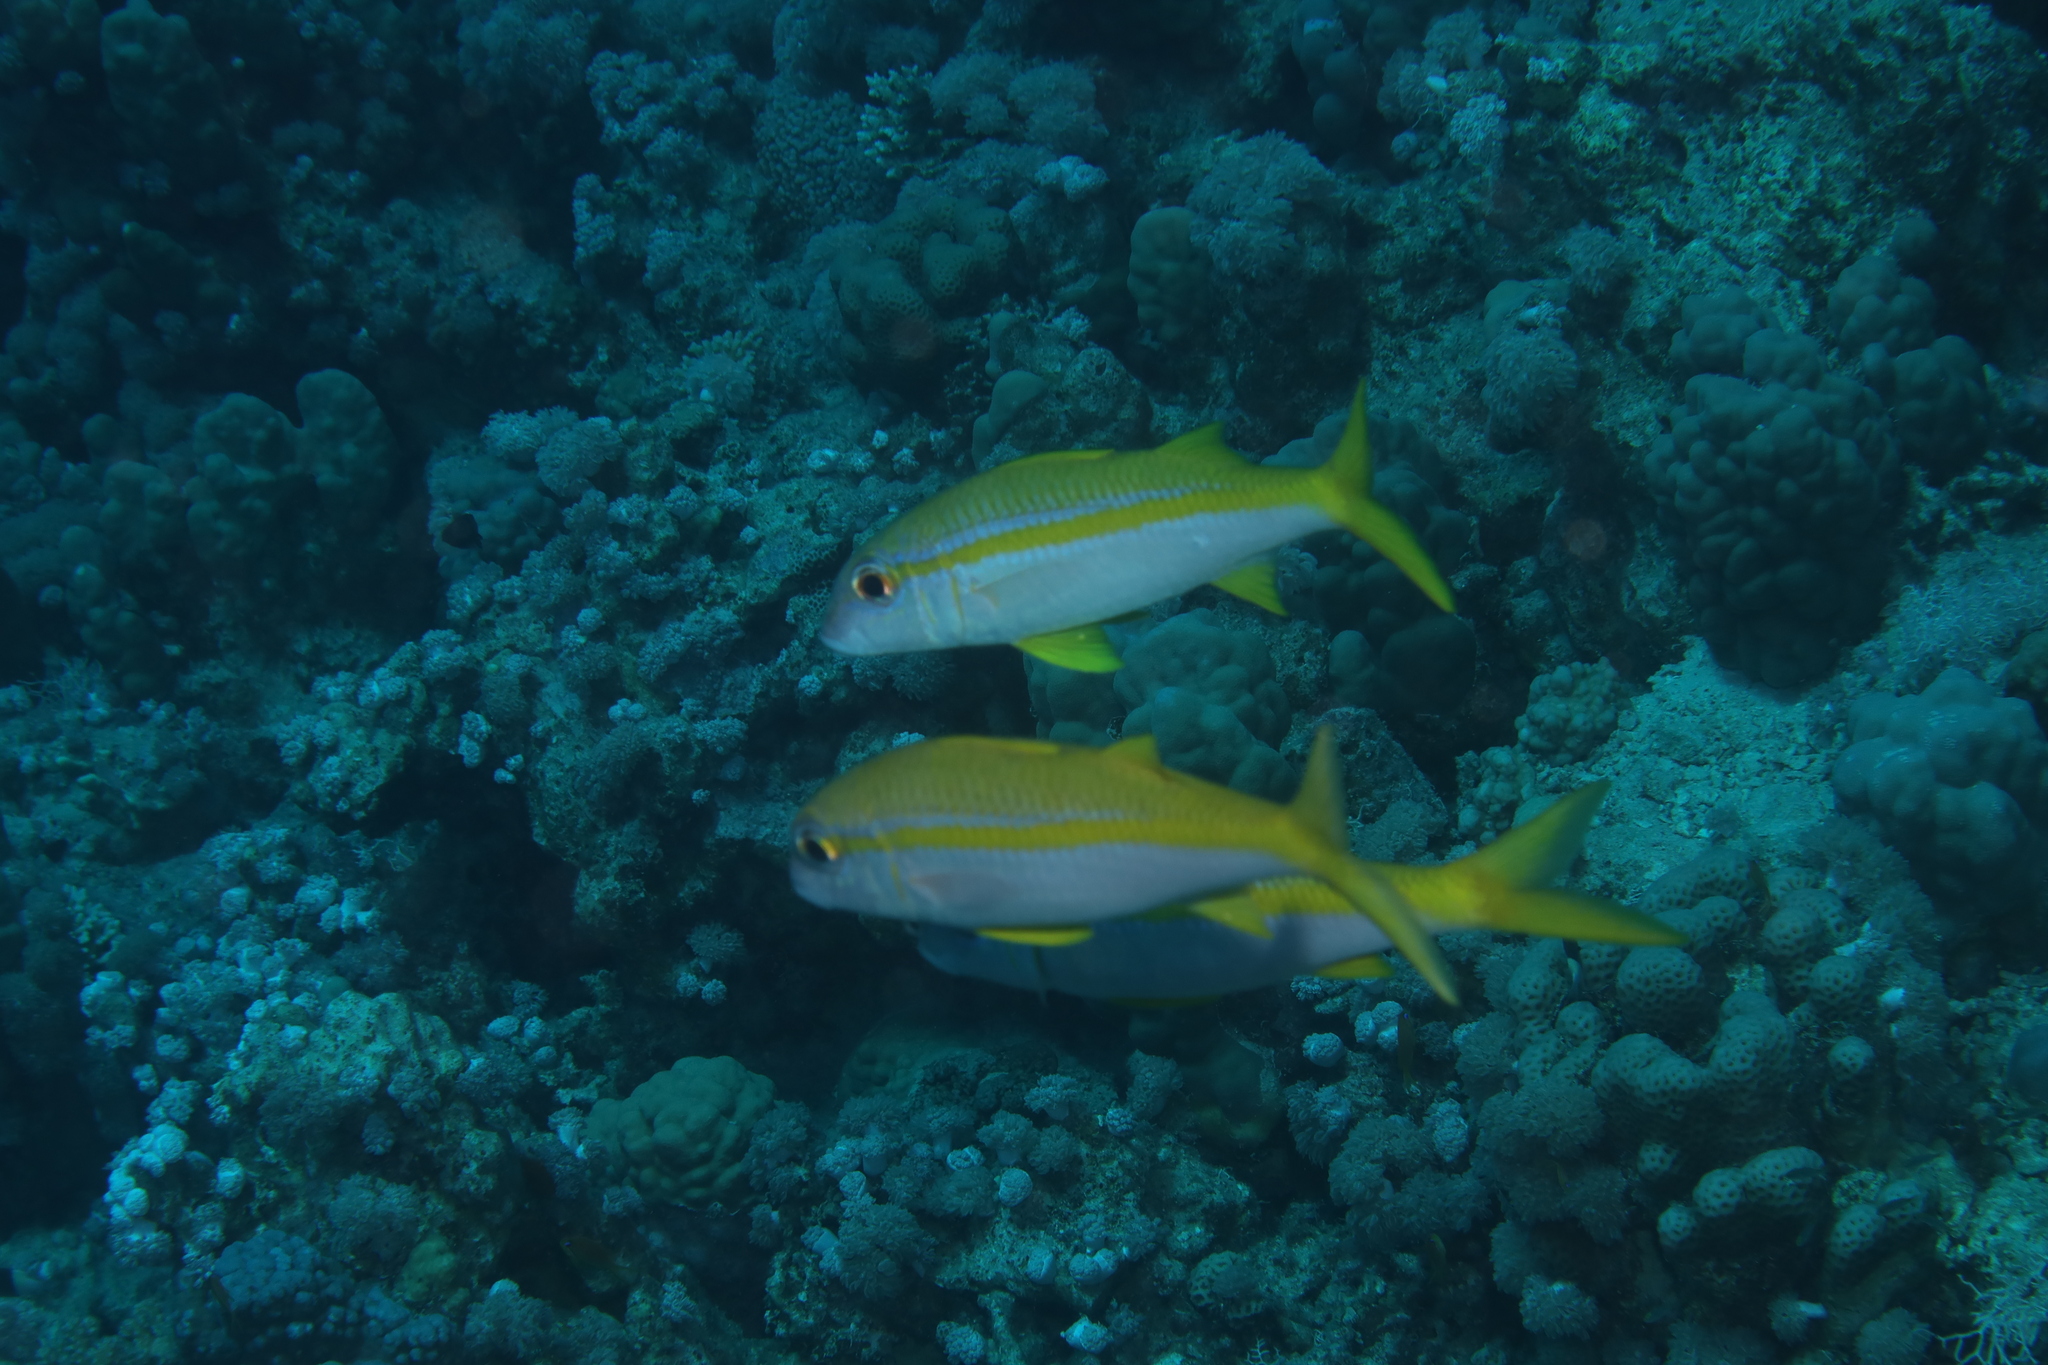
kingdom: Animalia
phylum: Chordata
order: Perciformes
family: Mullidae
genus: Mulloidichthys
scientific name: Mulloidichthys vanicolensis
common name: Yellowfin goatfish
